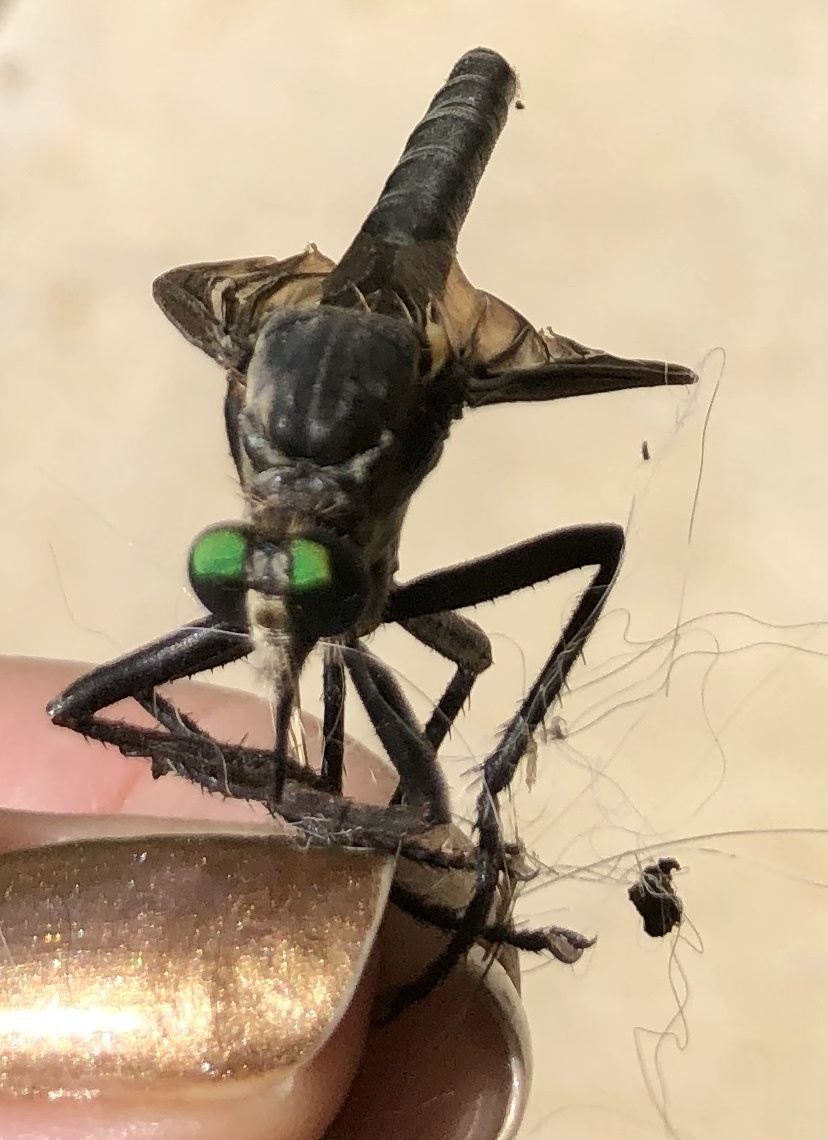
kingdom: Animalia
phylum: Arthropoda
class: Insecta
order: Diptera
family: Asilidae
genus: Microstylum
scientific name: Microstylum morosum
